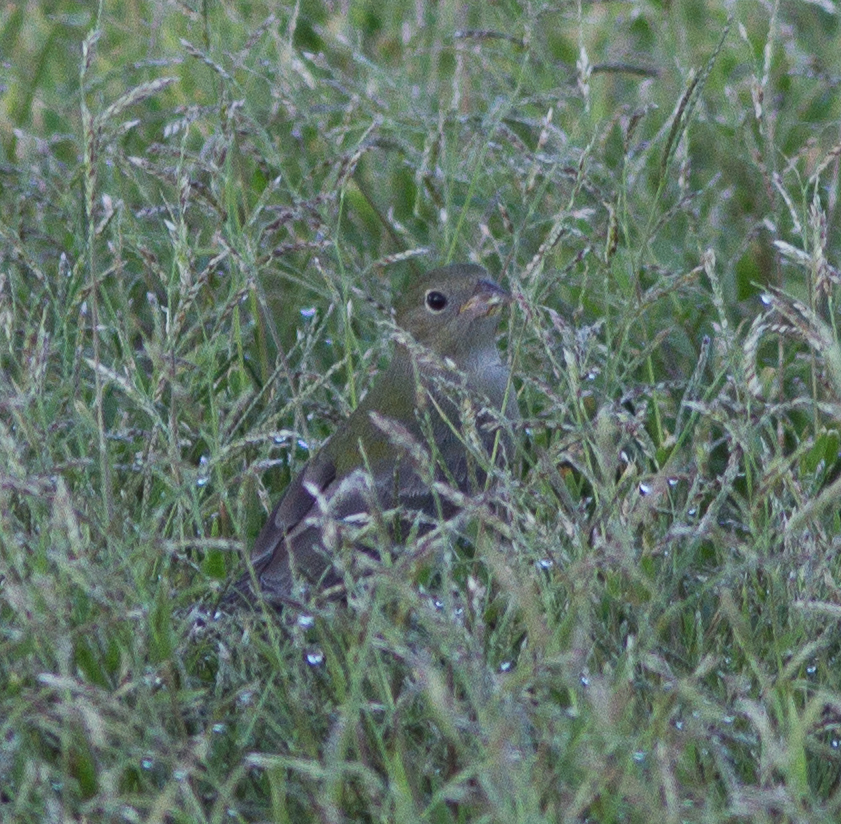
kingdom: Animalia
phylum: Chordata
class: Aves
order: Passeriformes
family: Cardinalidae
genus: Passerina
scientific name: Passerina ciris
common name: Painted bunting
